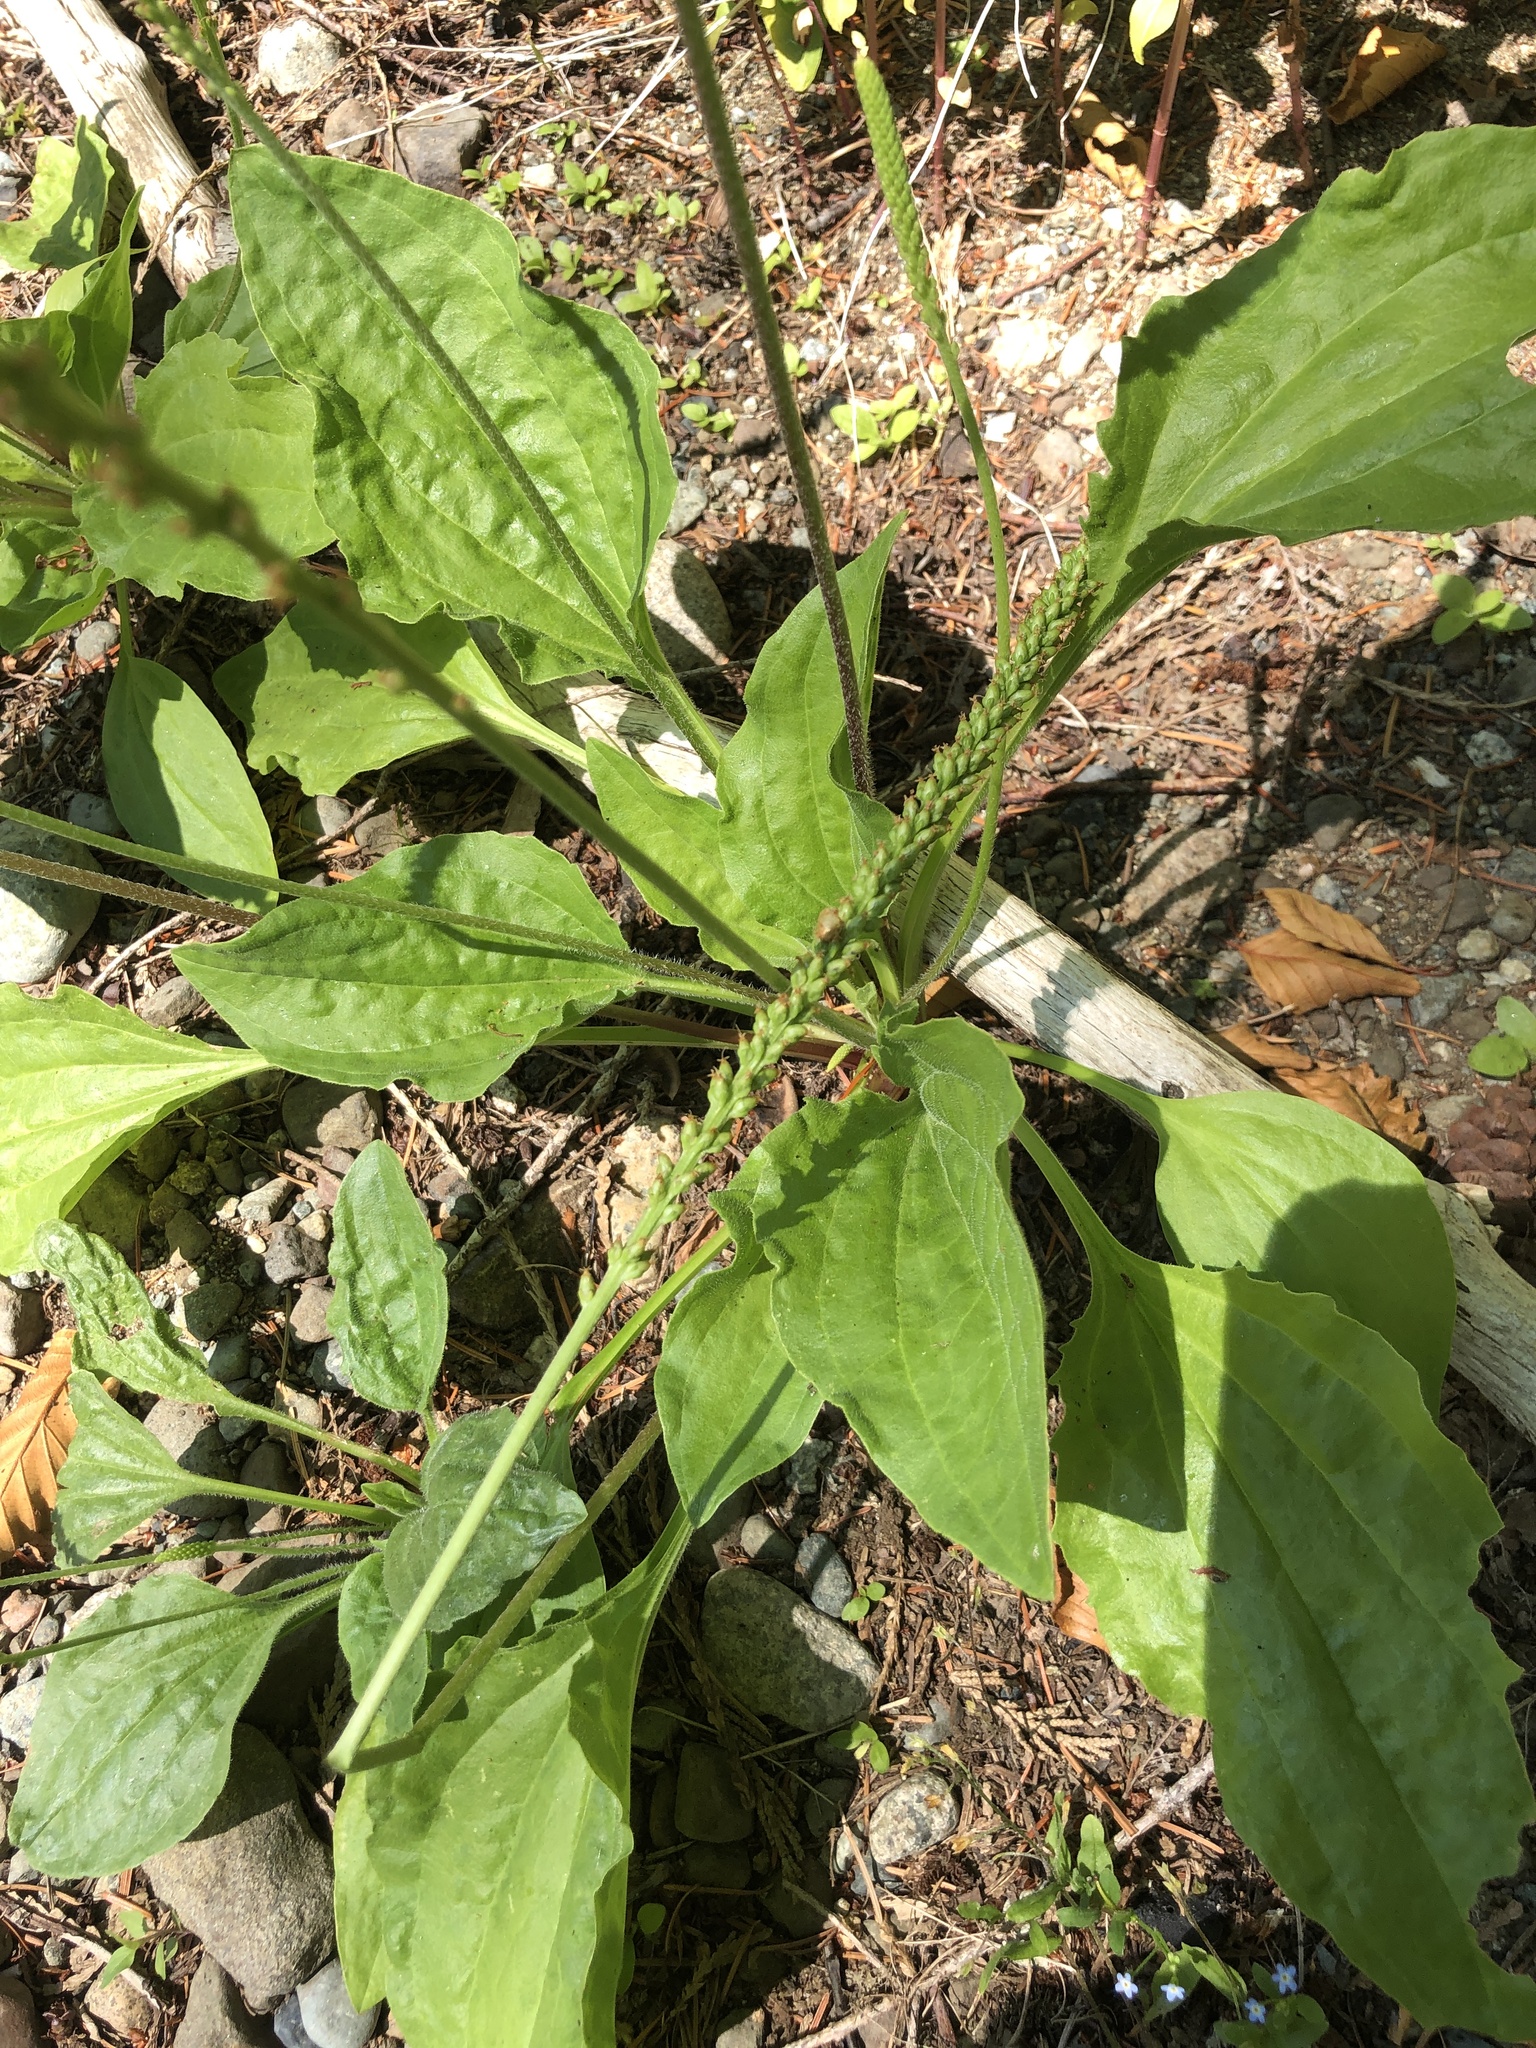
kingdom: Plantae
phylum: Tracheophyta
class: Magnoliopsida
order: Lamiales
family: Plantaginaceae
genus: Plantago
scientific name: Plantago major
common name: Common plantain
